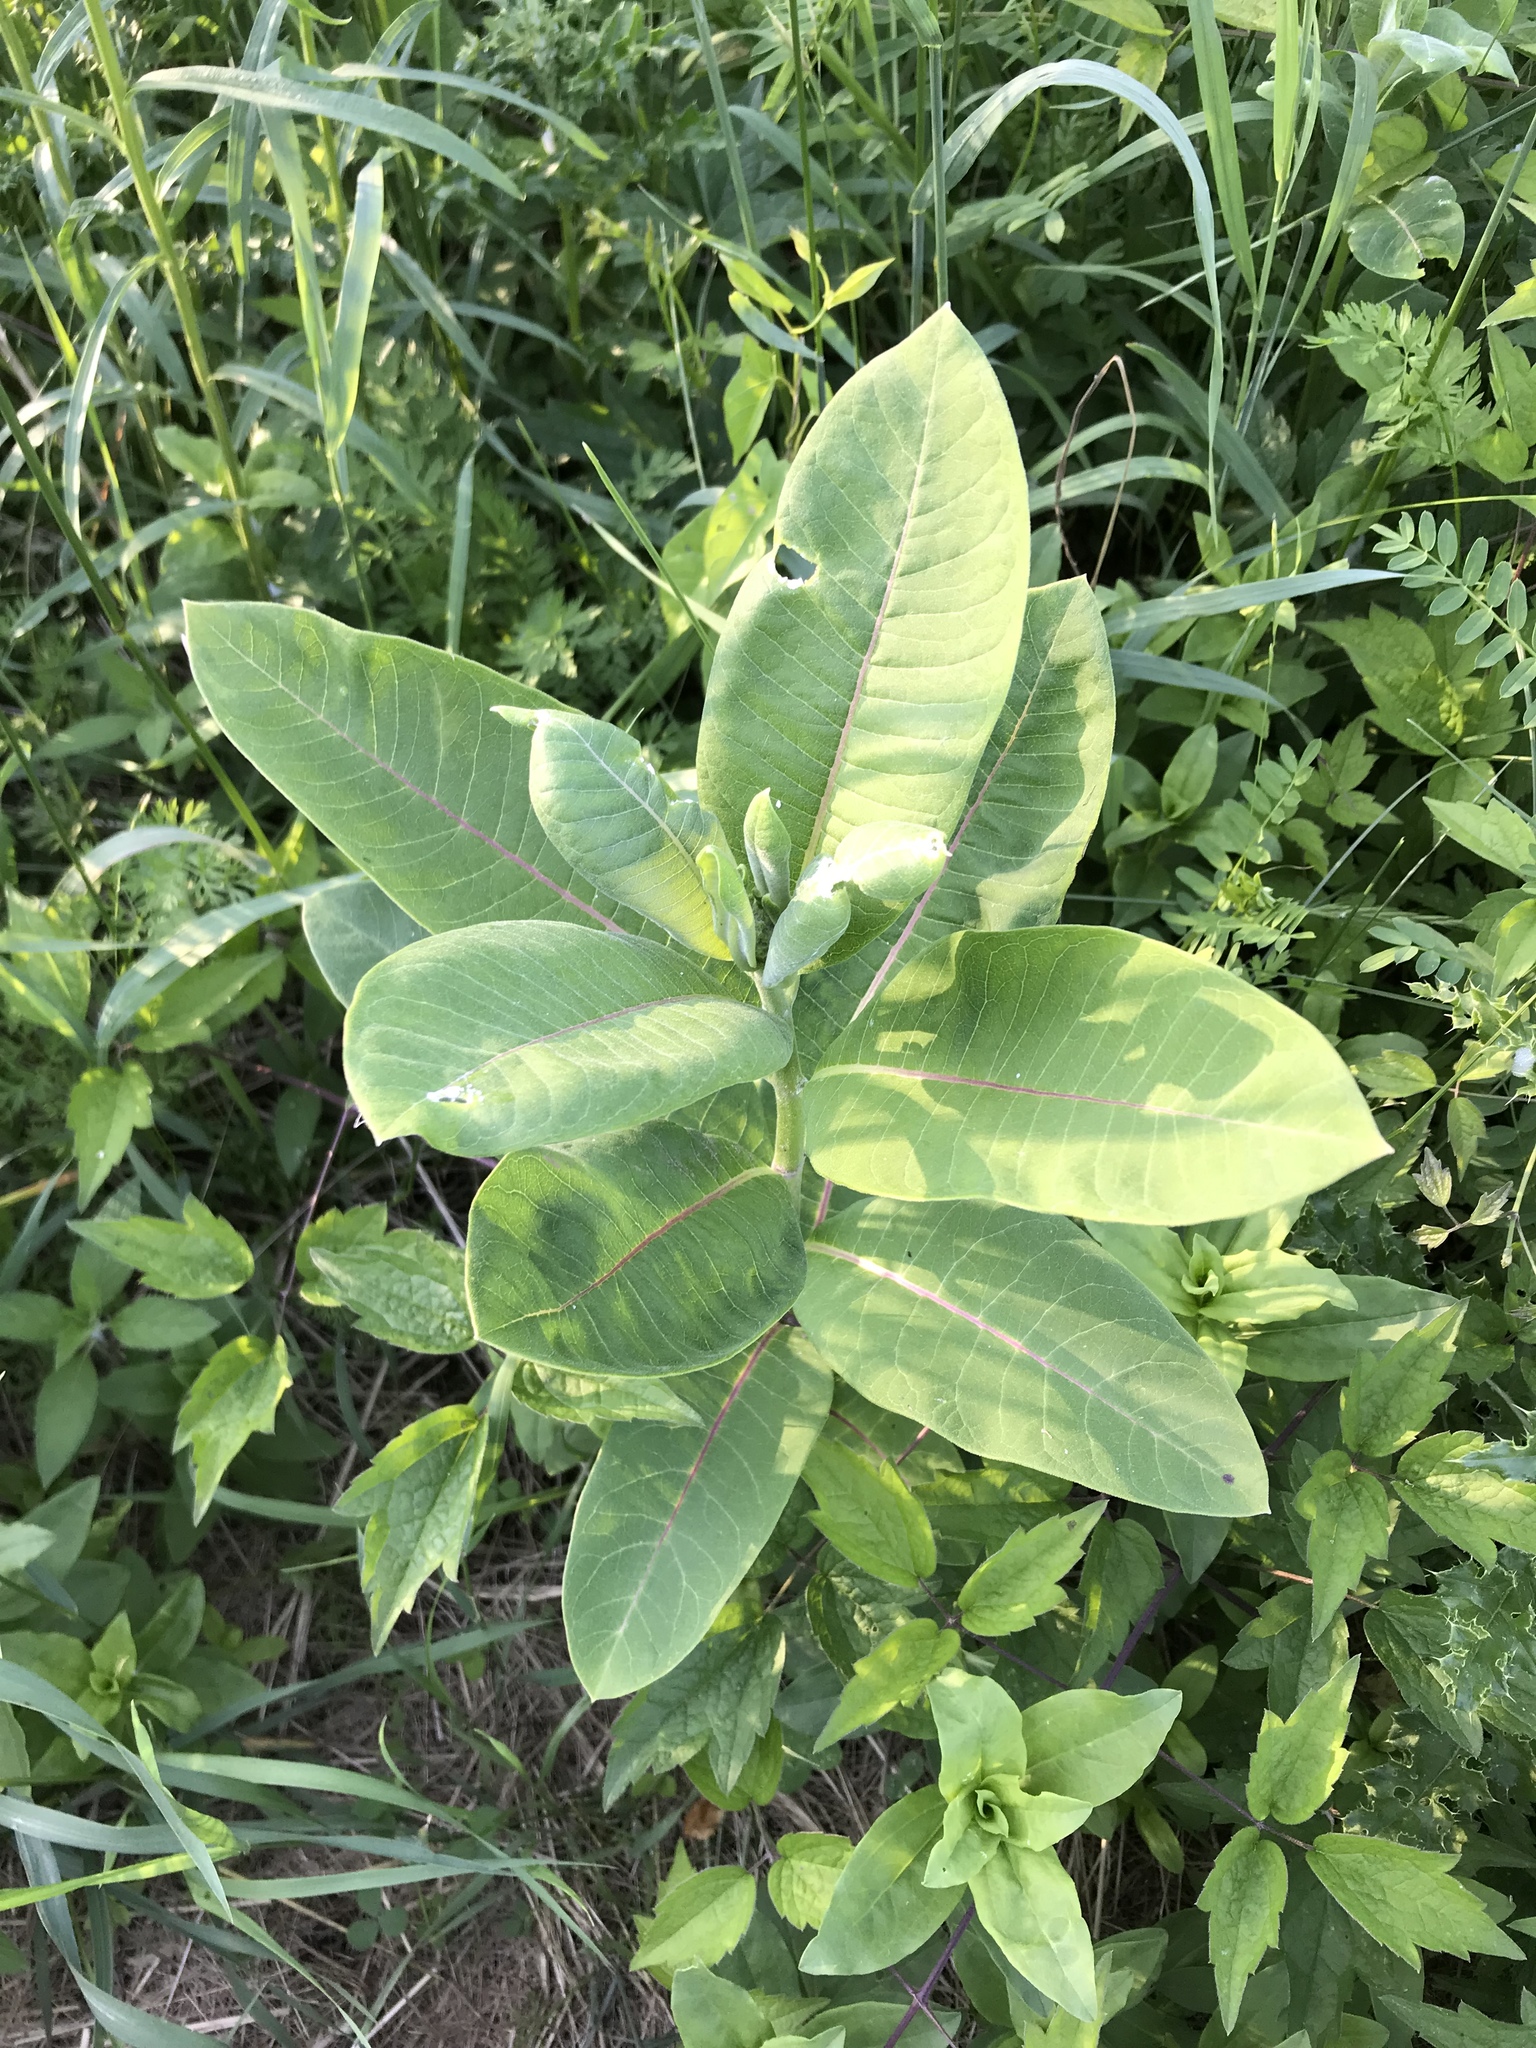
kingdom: Plantae
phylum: Tracheophyta
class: Magnoliopsida
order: Gentianales
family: Apocynaceae
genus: Asclepias
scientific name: Asclepias syriaca
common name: Common milkweed
